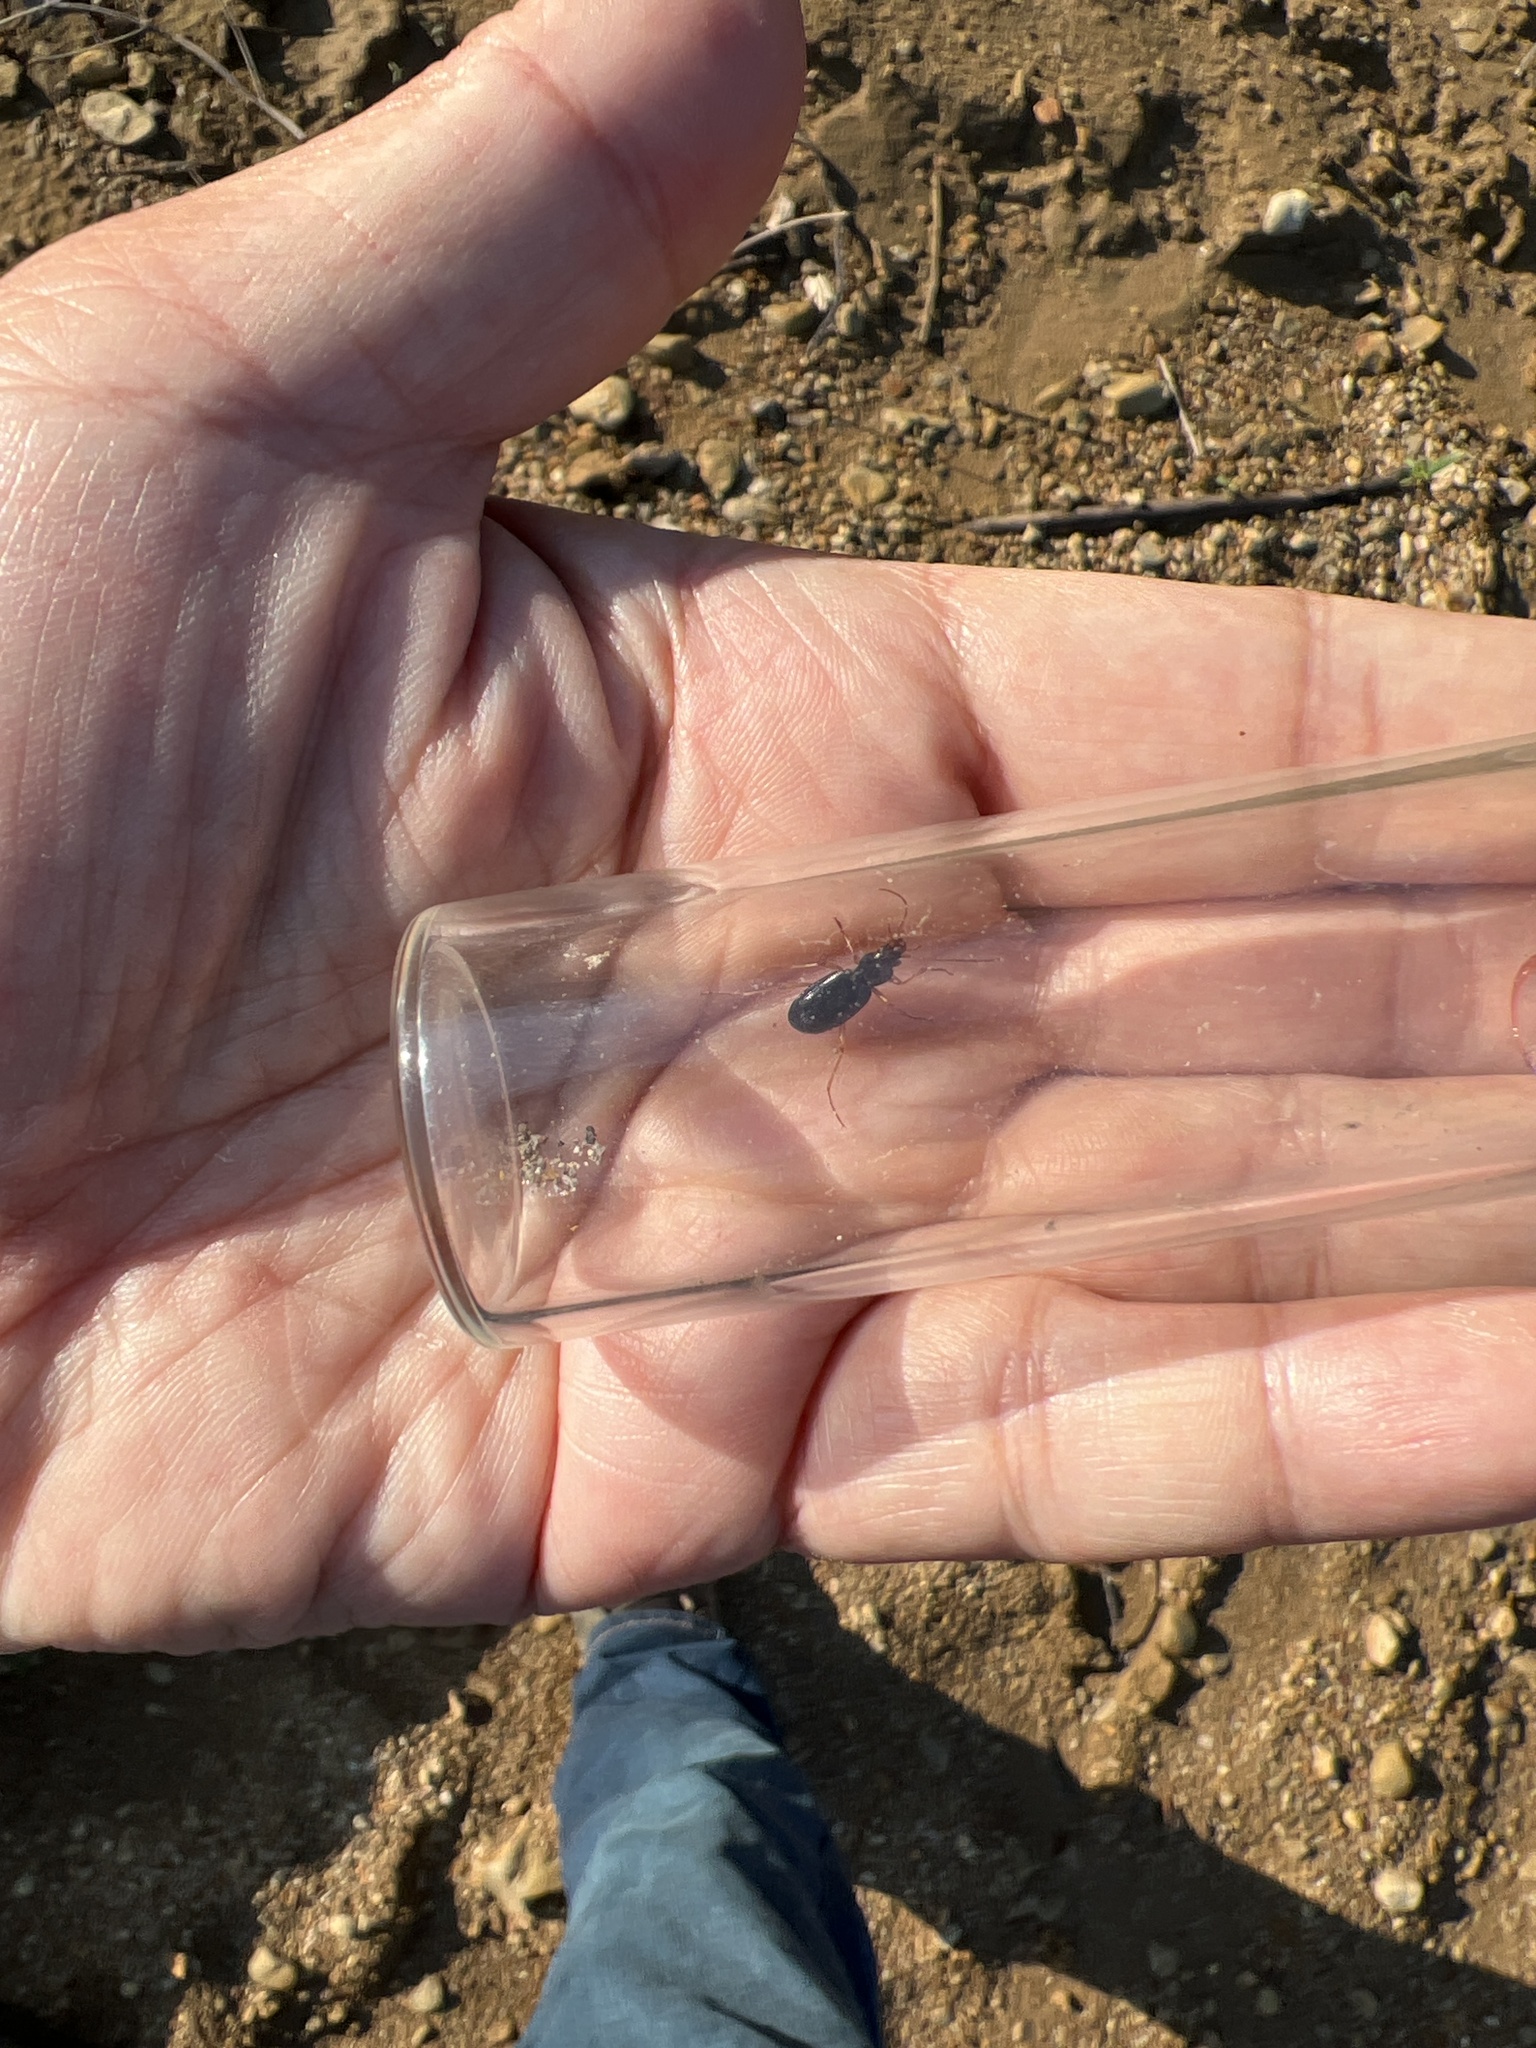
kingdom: Animalia
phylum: Arthropoda
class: Insecta
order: Coleoptera
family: Carabidae
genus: Nebria
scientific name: Nebria eschscholtzii
